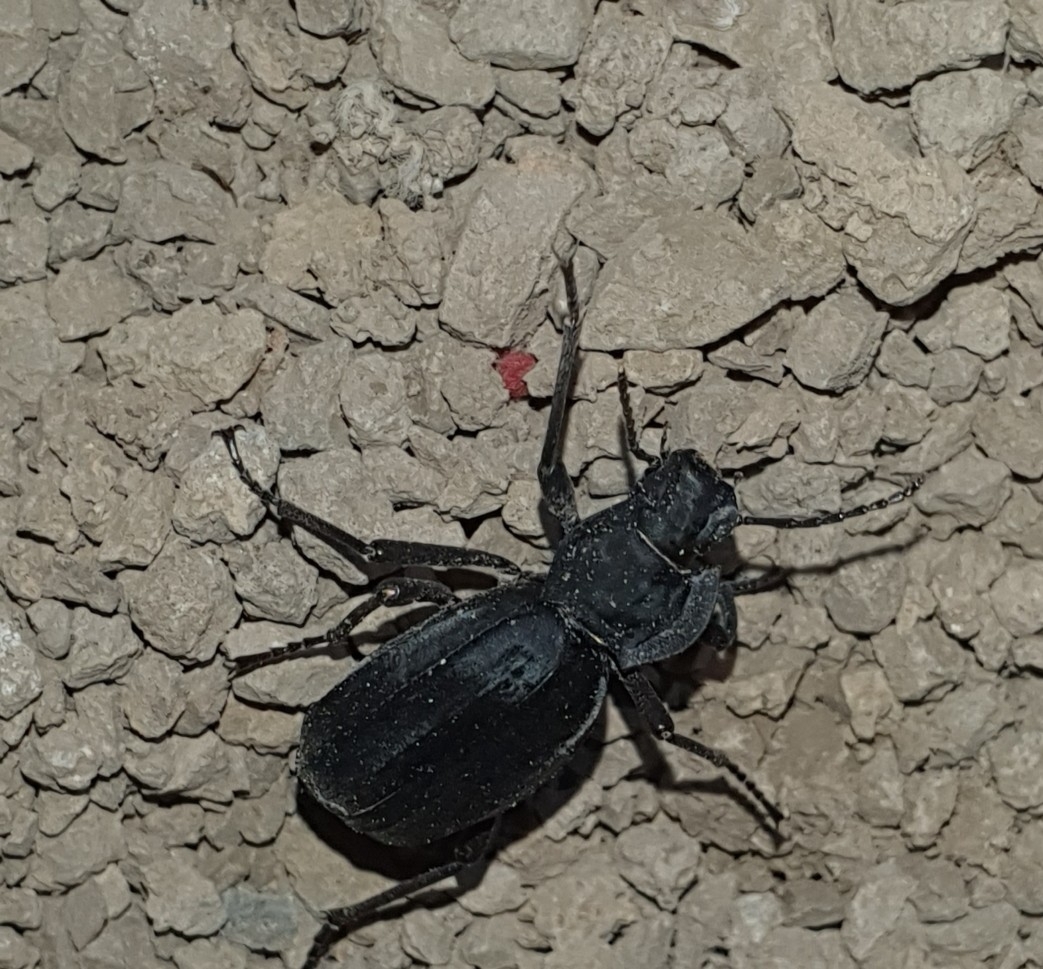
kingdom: Animalia
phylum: Arthropoda
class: Insecta
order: Coleoptera
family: Tenebrionidae
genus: Akis
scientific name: Akis trilineata
